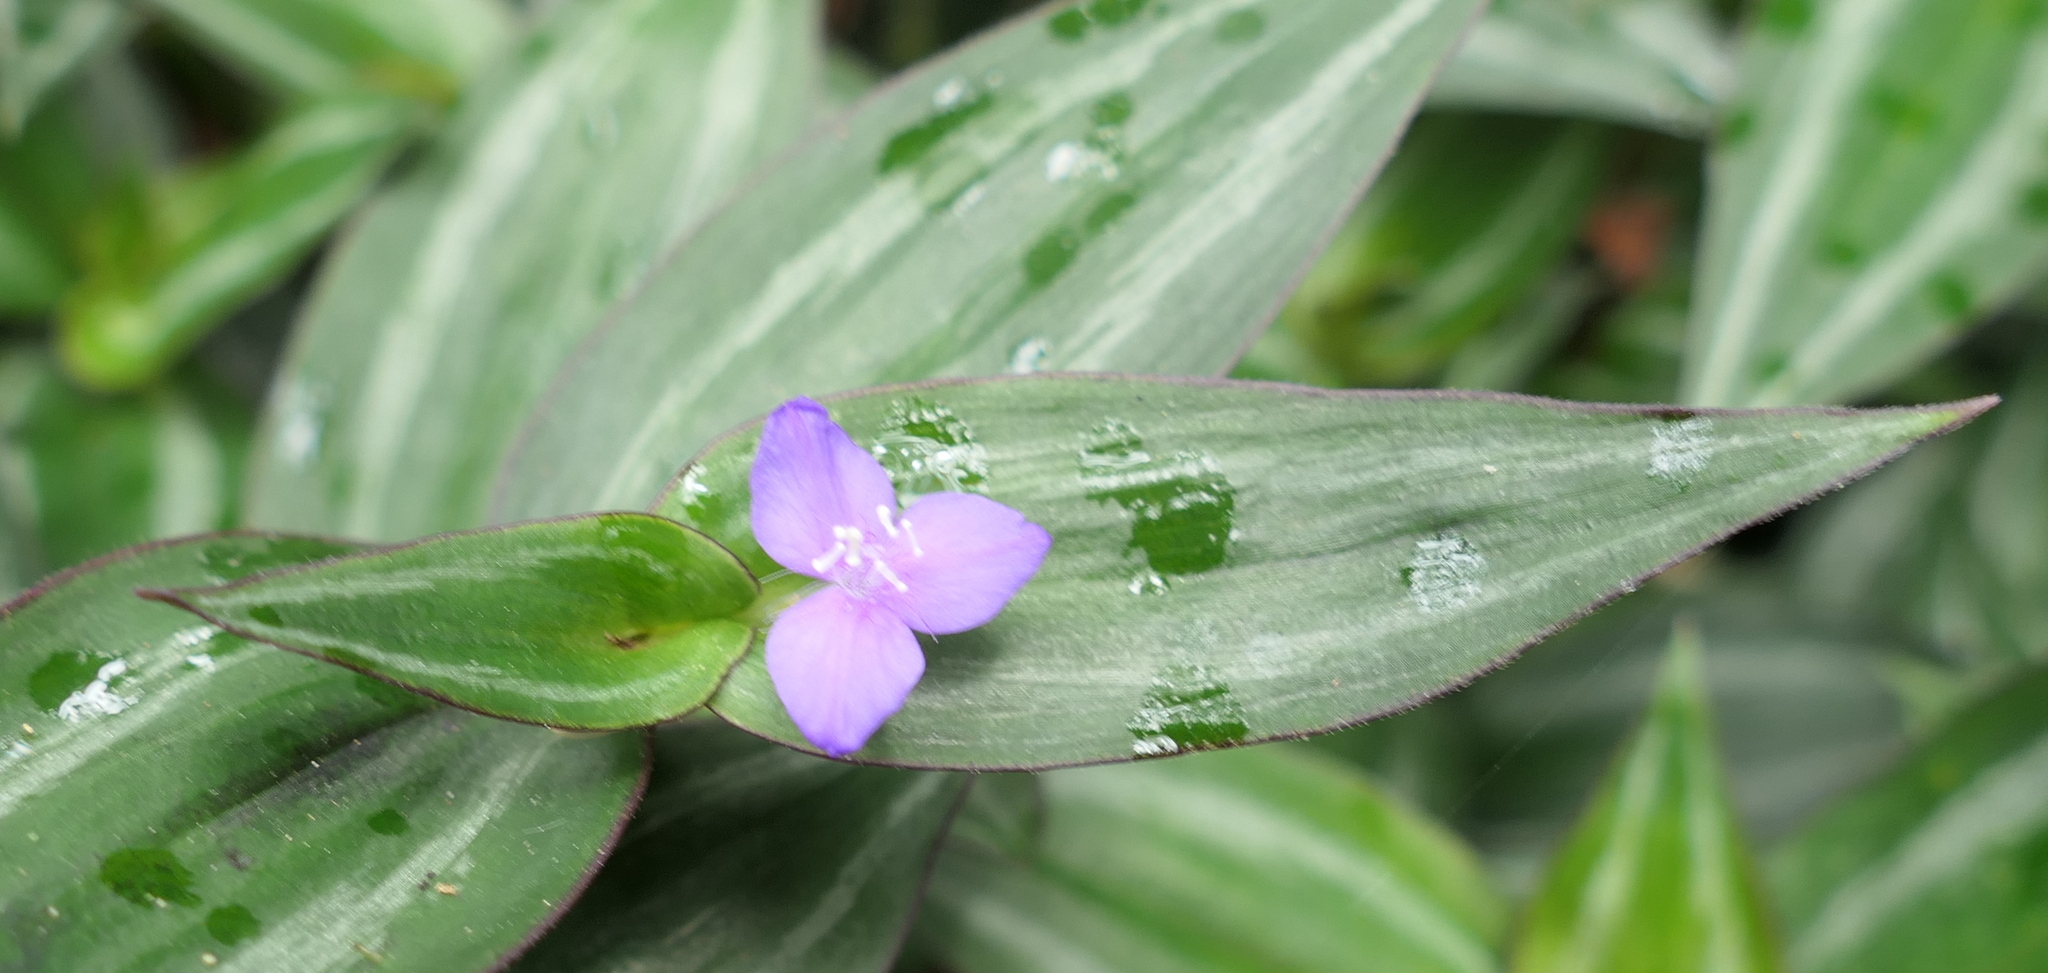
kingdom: Plantae
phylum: Tracheophyta
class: Liliopsida
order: Commelinales
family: Commelinaceae
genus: Tradescantia
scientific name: Tradescantia zebrina
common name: Inchplant
